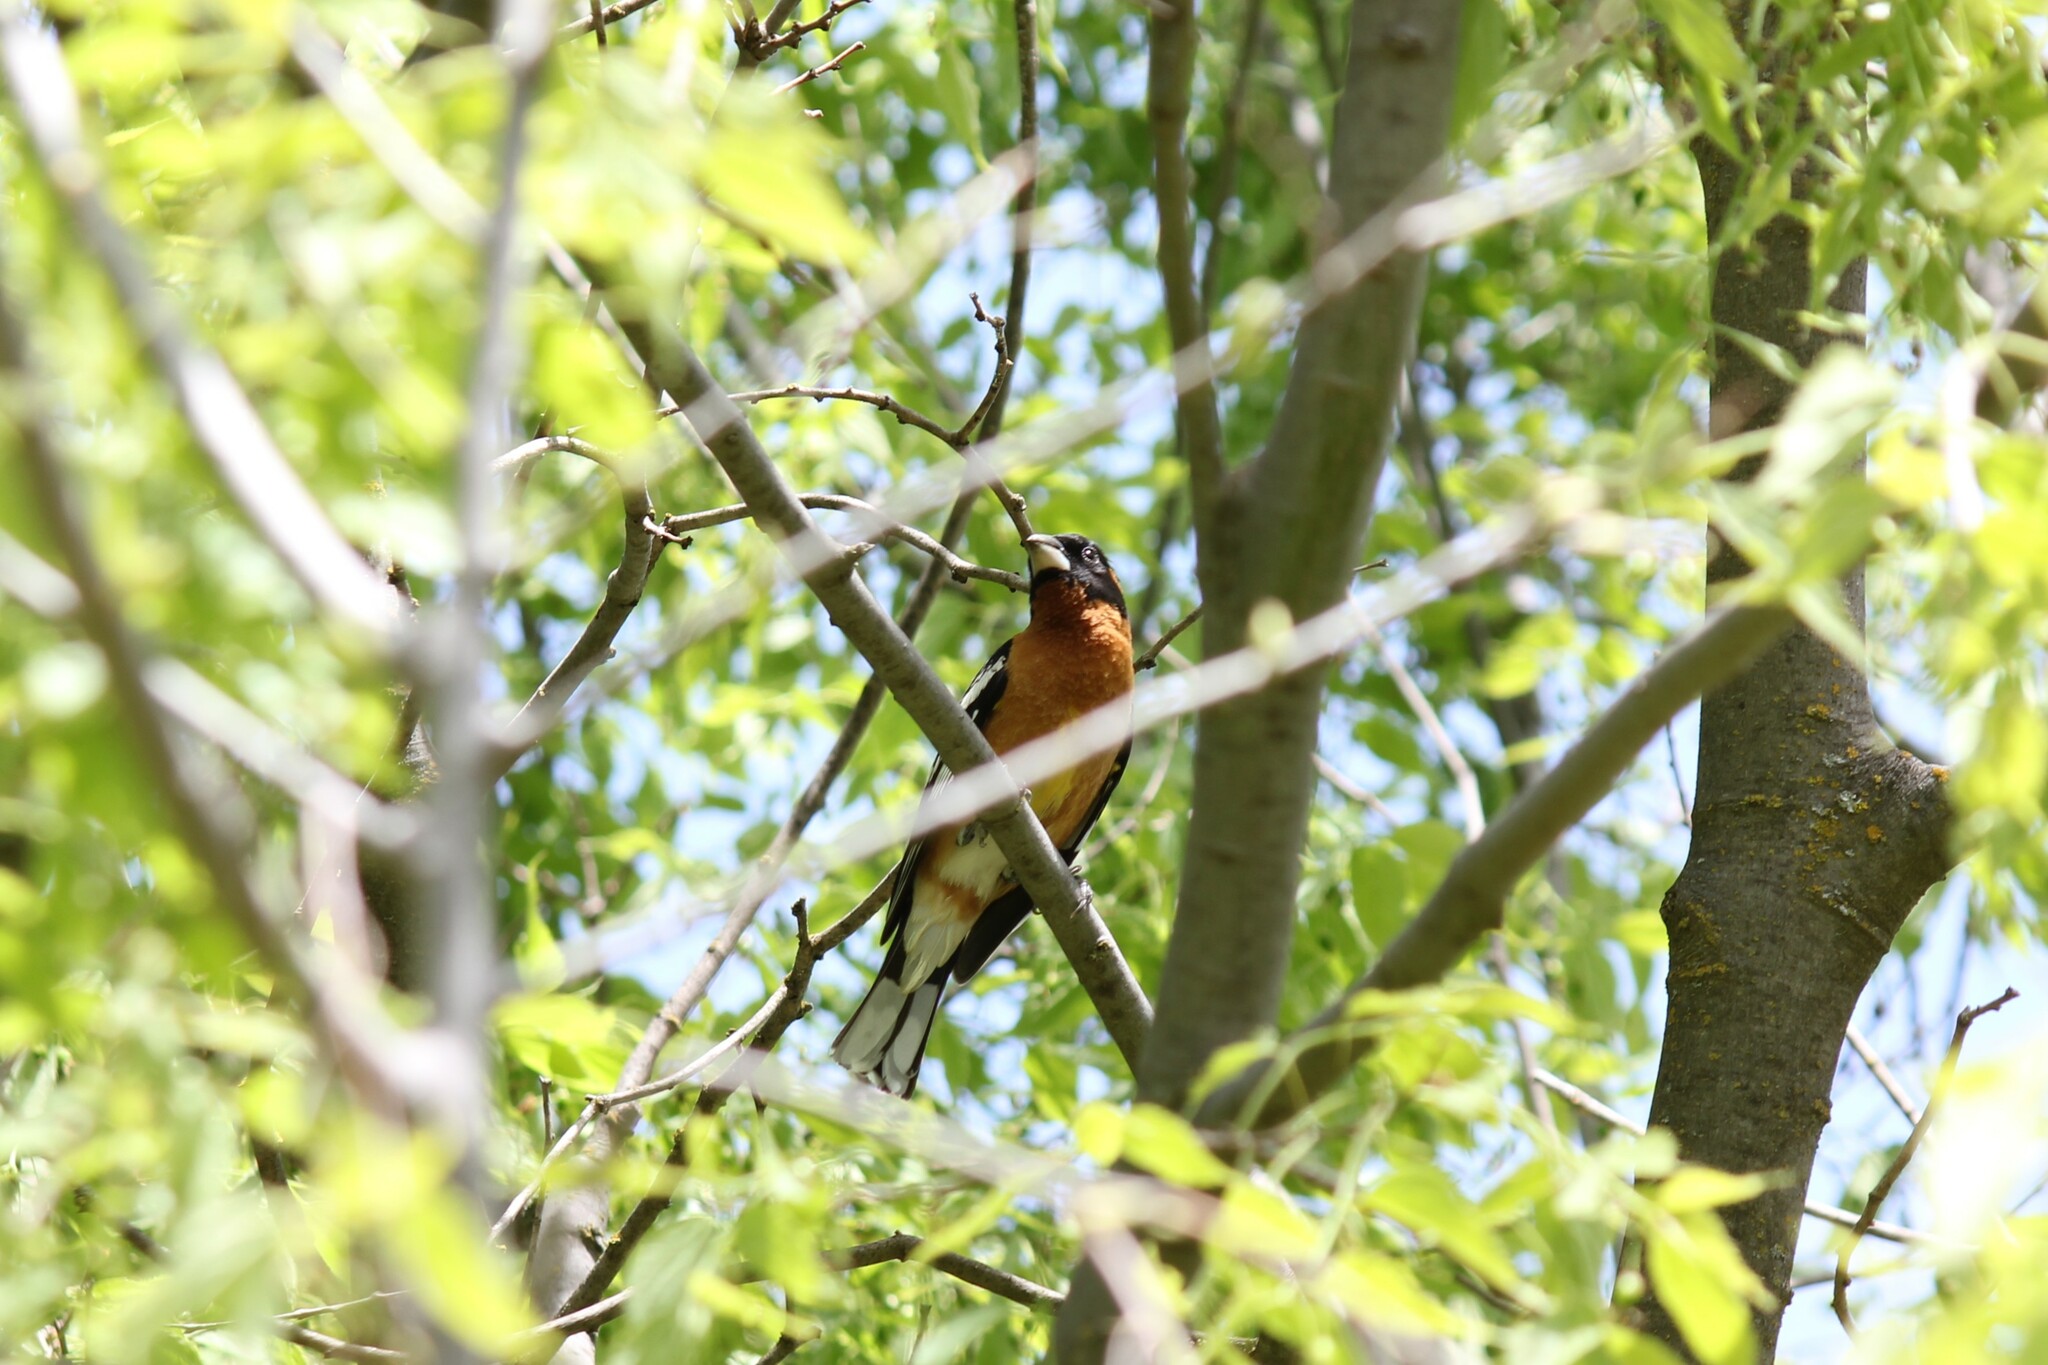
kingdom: Animalia
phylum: Chordata
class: Aves
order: Passeriformes
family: Cardinalidae
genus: Pheucticus
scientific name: Pheucticus melanocephalus
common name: Black-headed grosbeak
